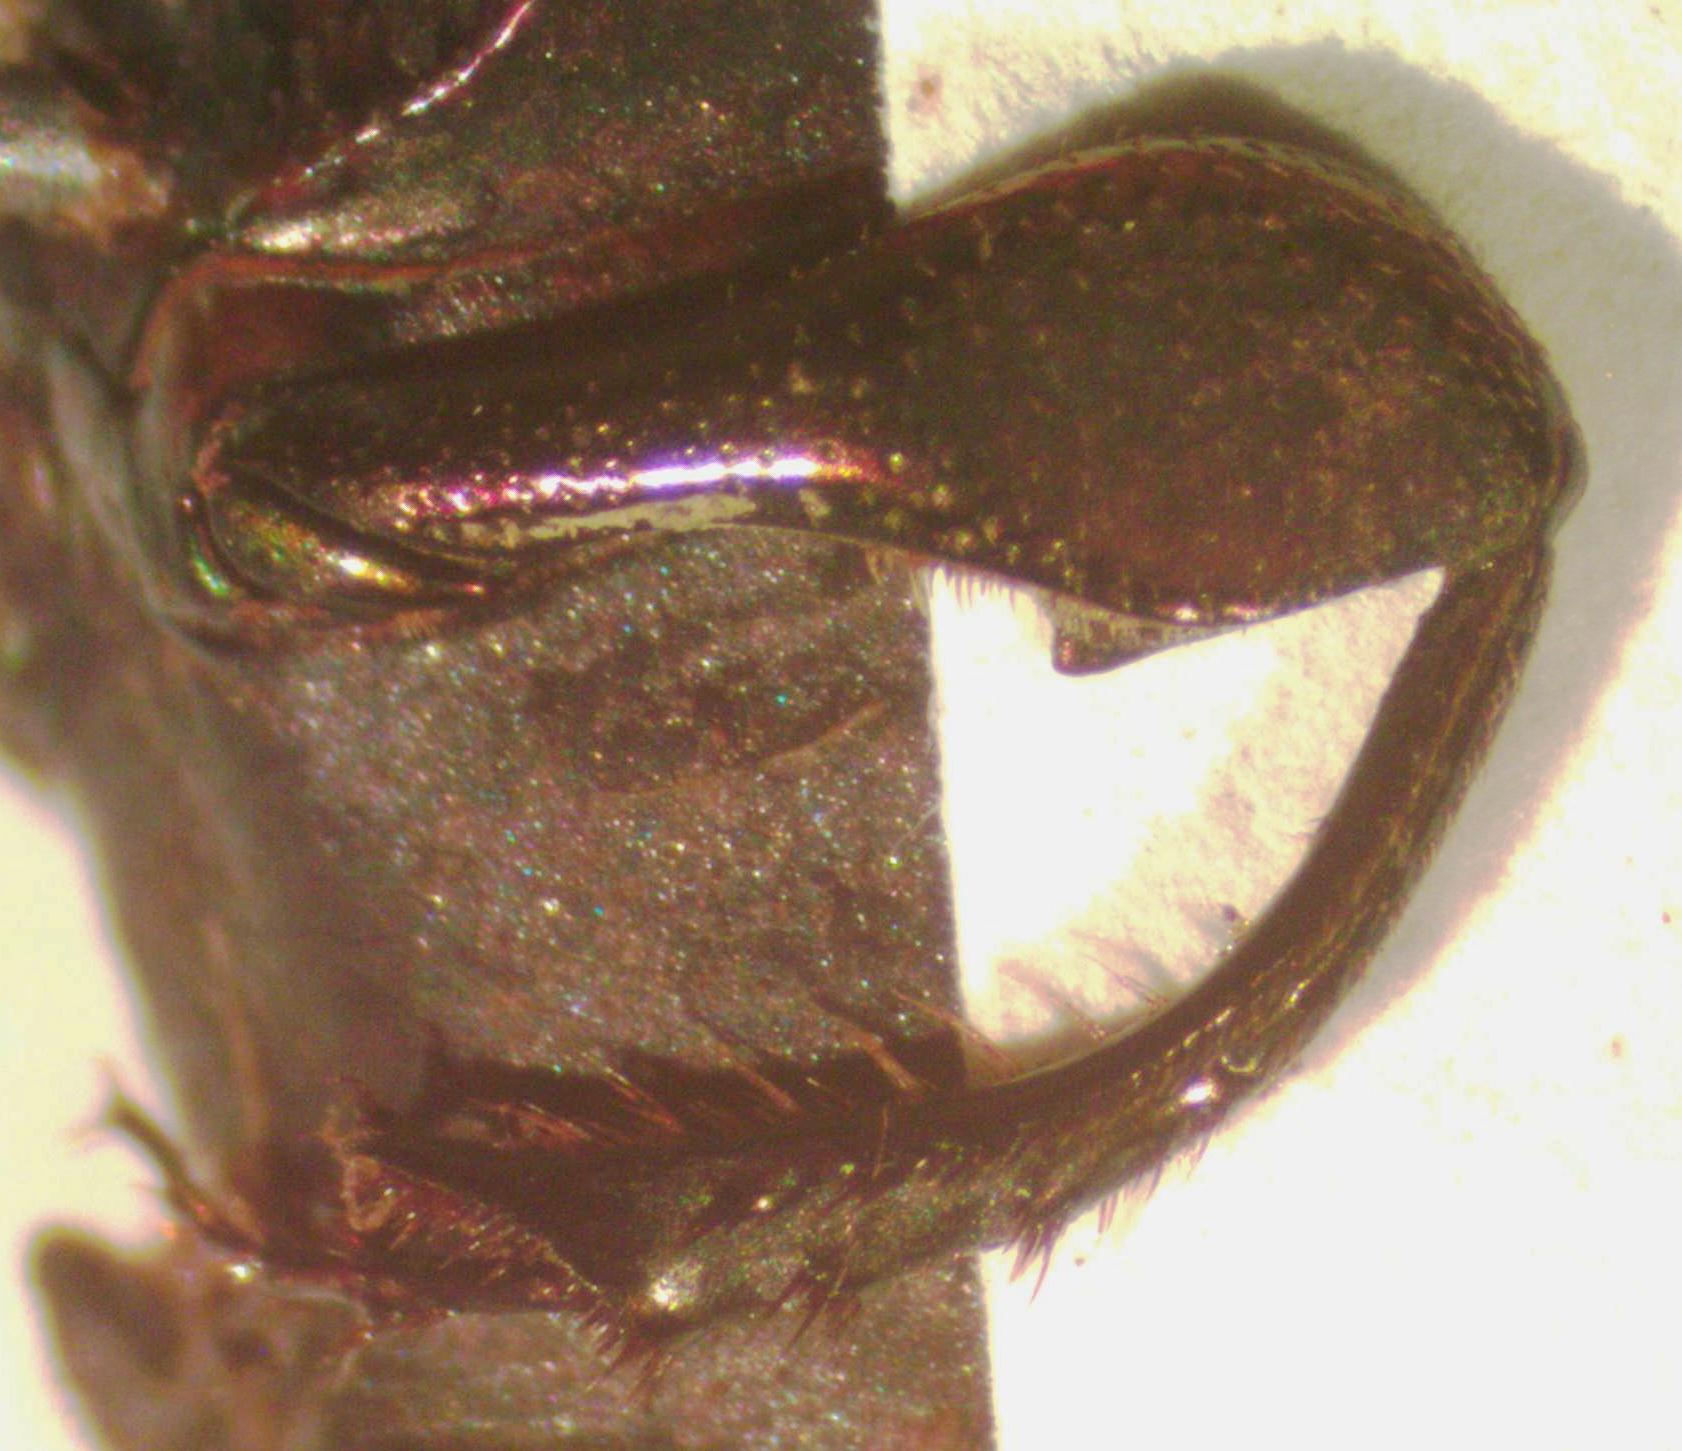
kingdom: Animalia
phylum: Arthropoda
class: Insecta
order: Coleoptera
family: Scarabaeidae
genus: Eurysternus
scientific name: Eurysternus mexicanus
